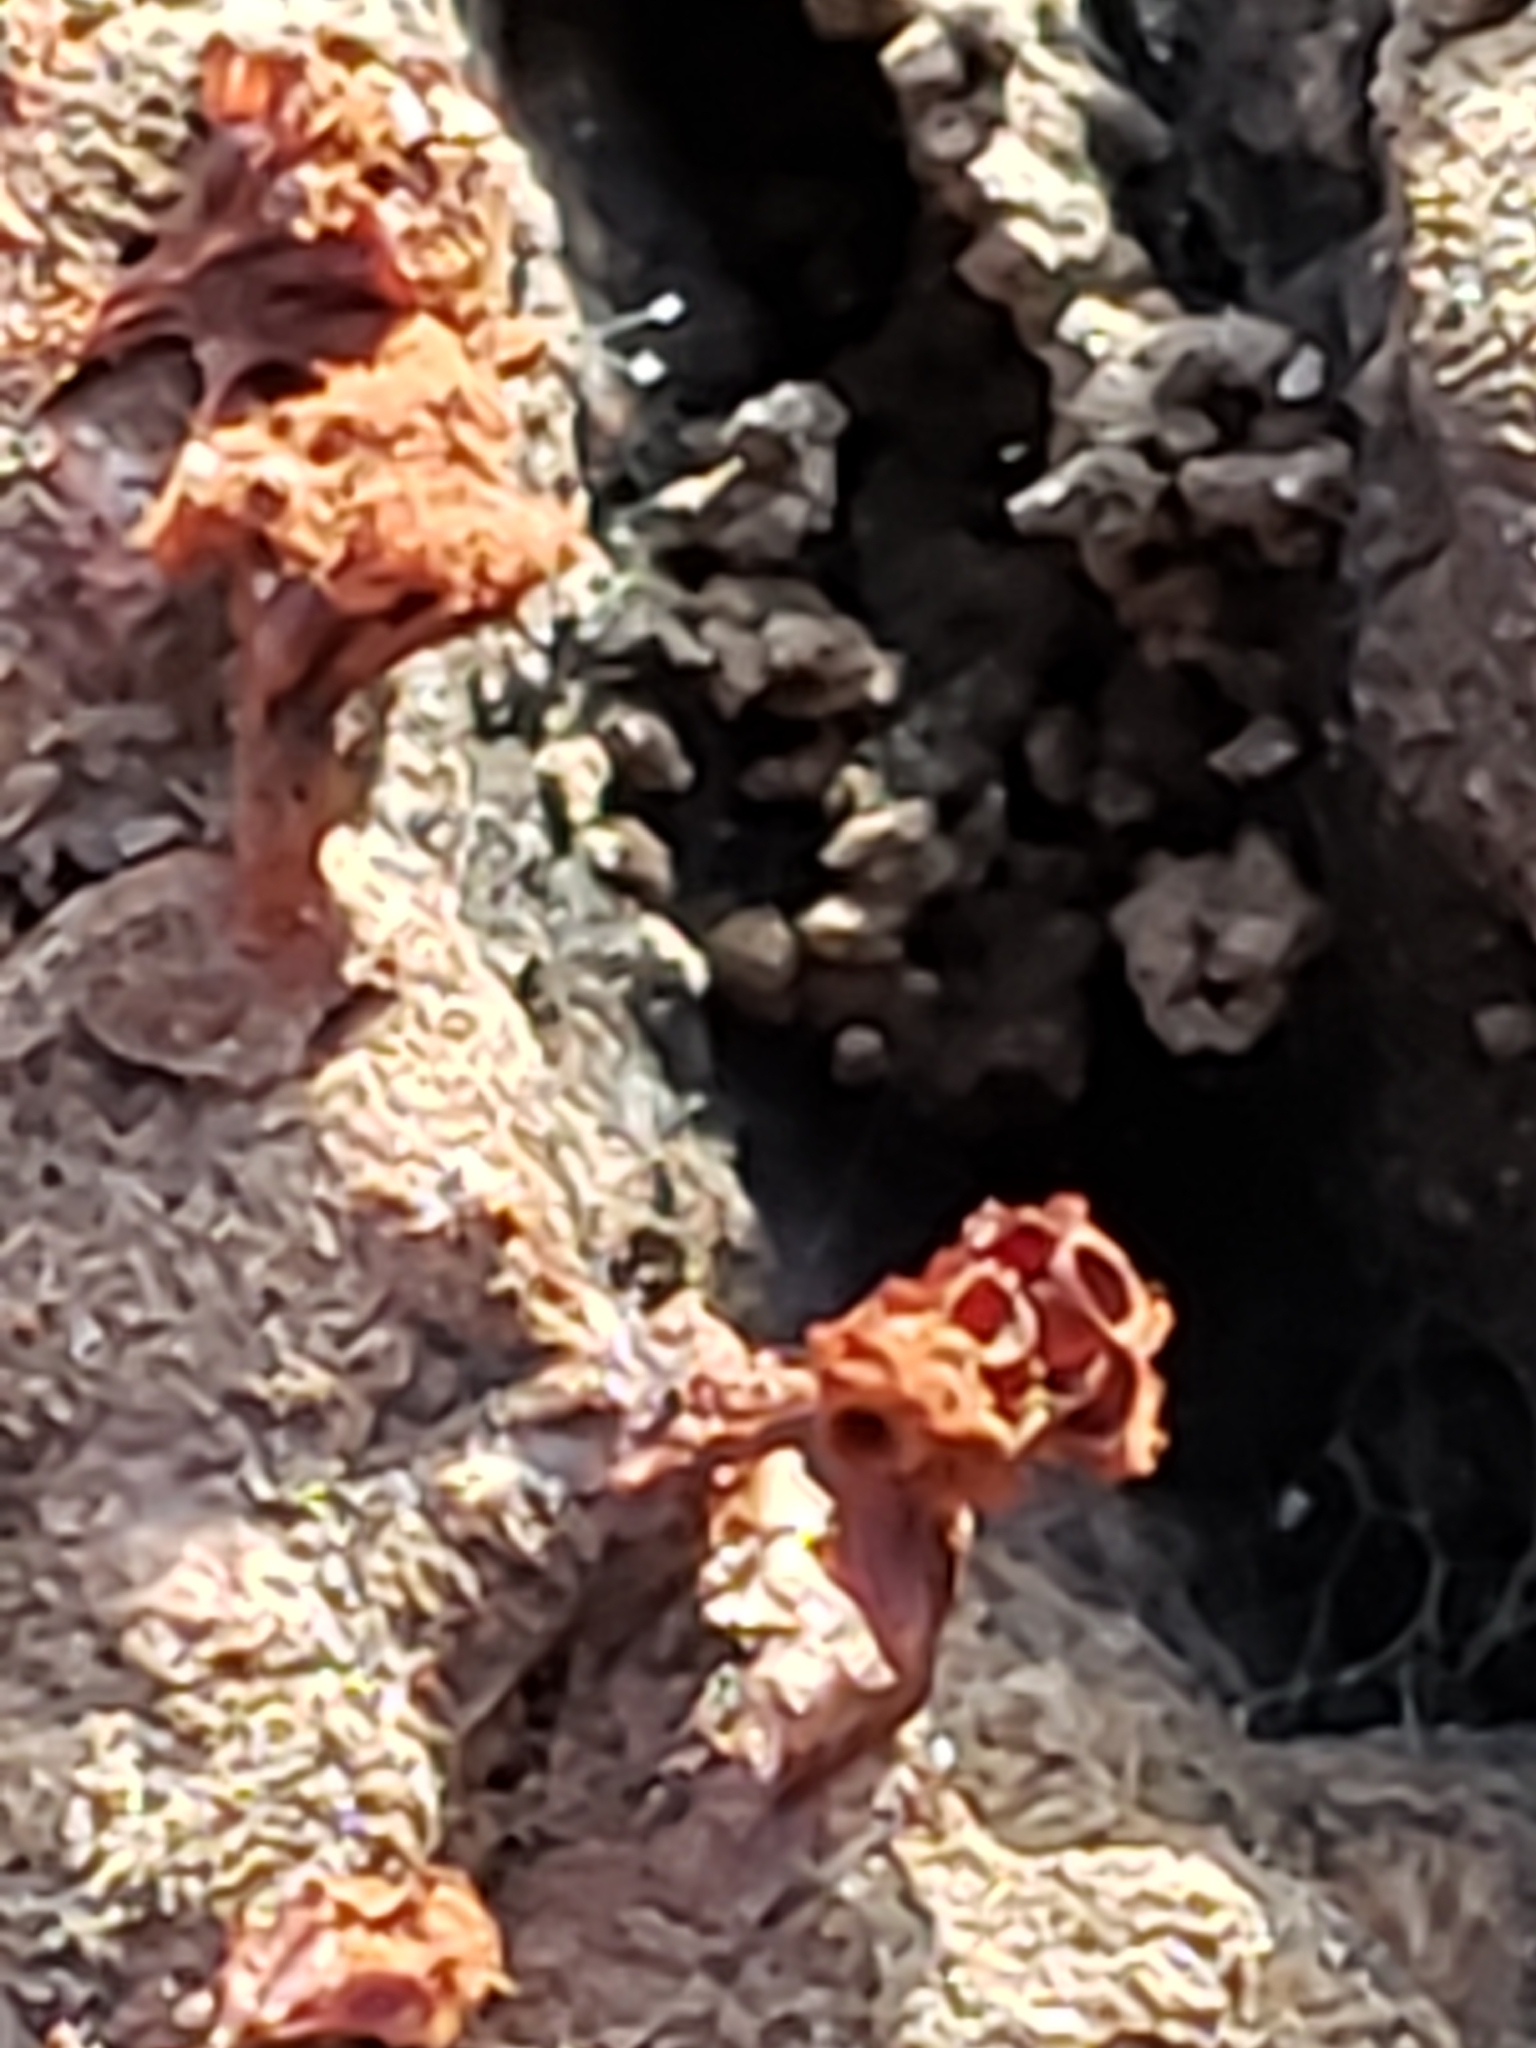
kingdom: Protozoa
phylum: Mycetozoa
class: Myxomycetes
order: Trichiales
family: Trichiaceae
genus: Metatrichia
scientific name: Metatrichia vesparia
